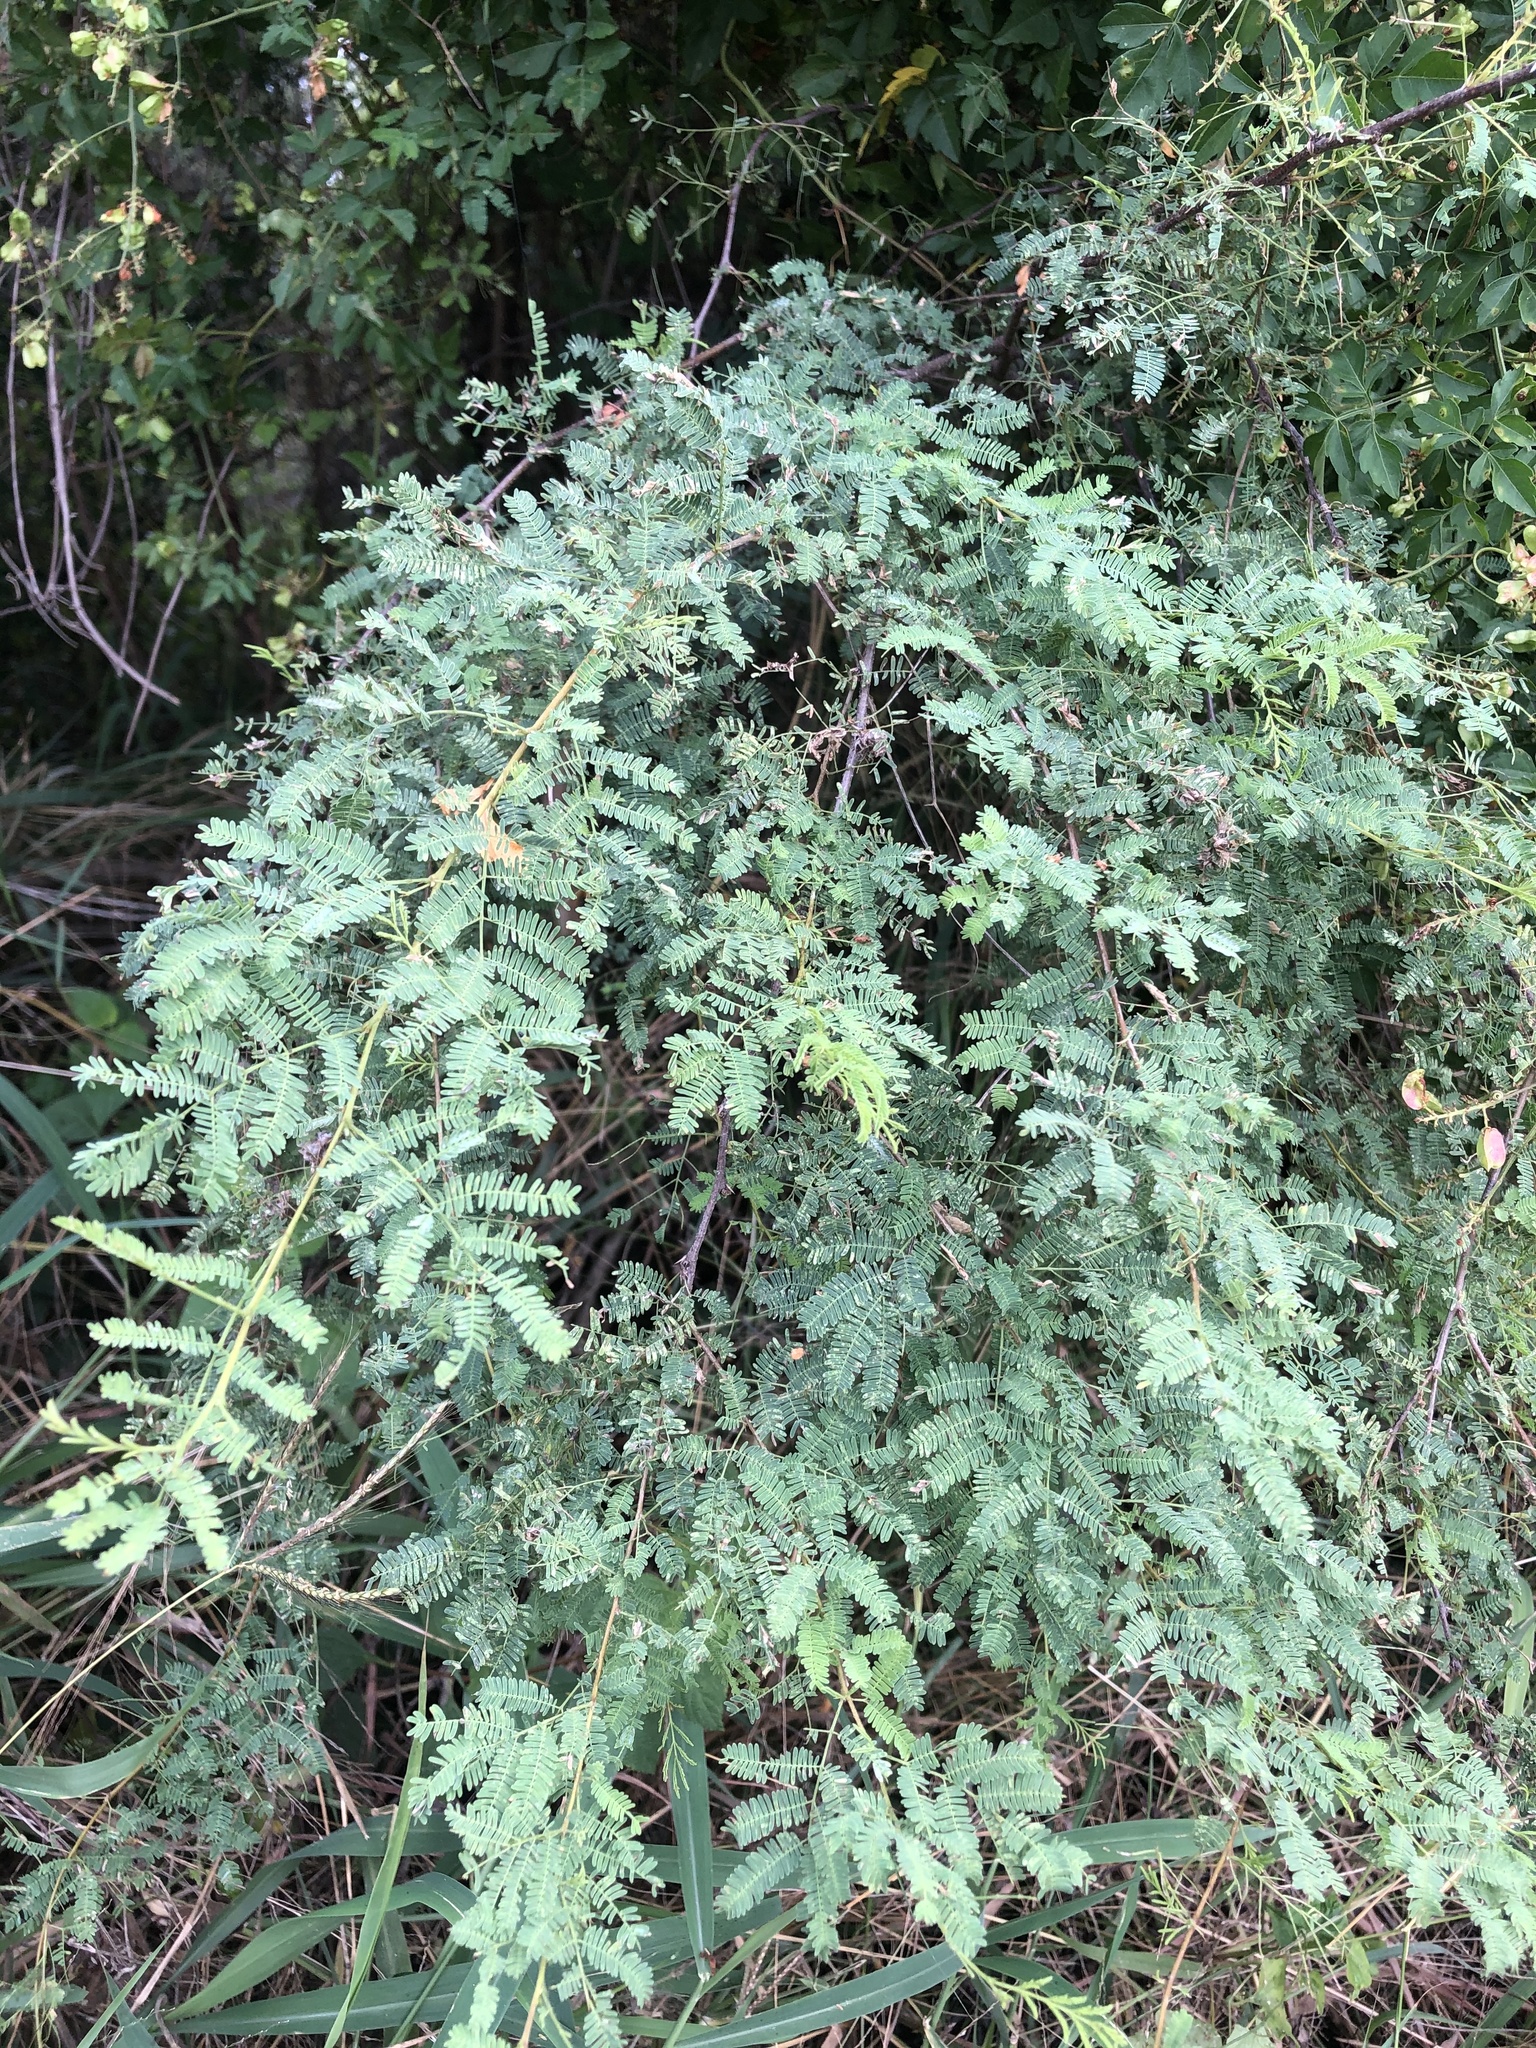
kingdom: Plantae
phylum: Tracheophyta
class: Magnoliopsida
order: Fabales
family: Fabaceae
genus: Vachellia
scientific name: Vachellia farnesiana
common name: Sweet acacia
